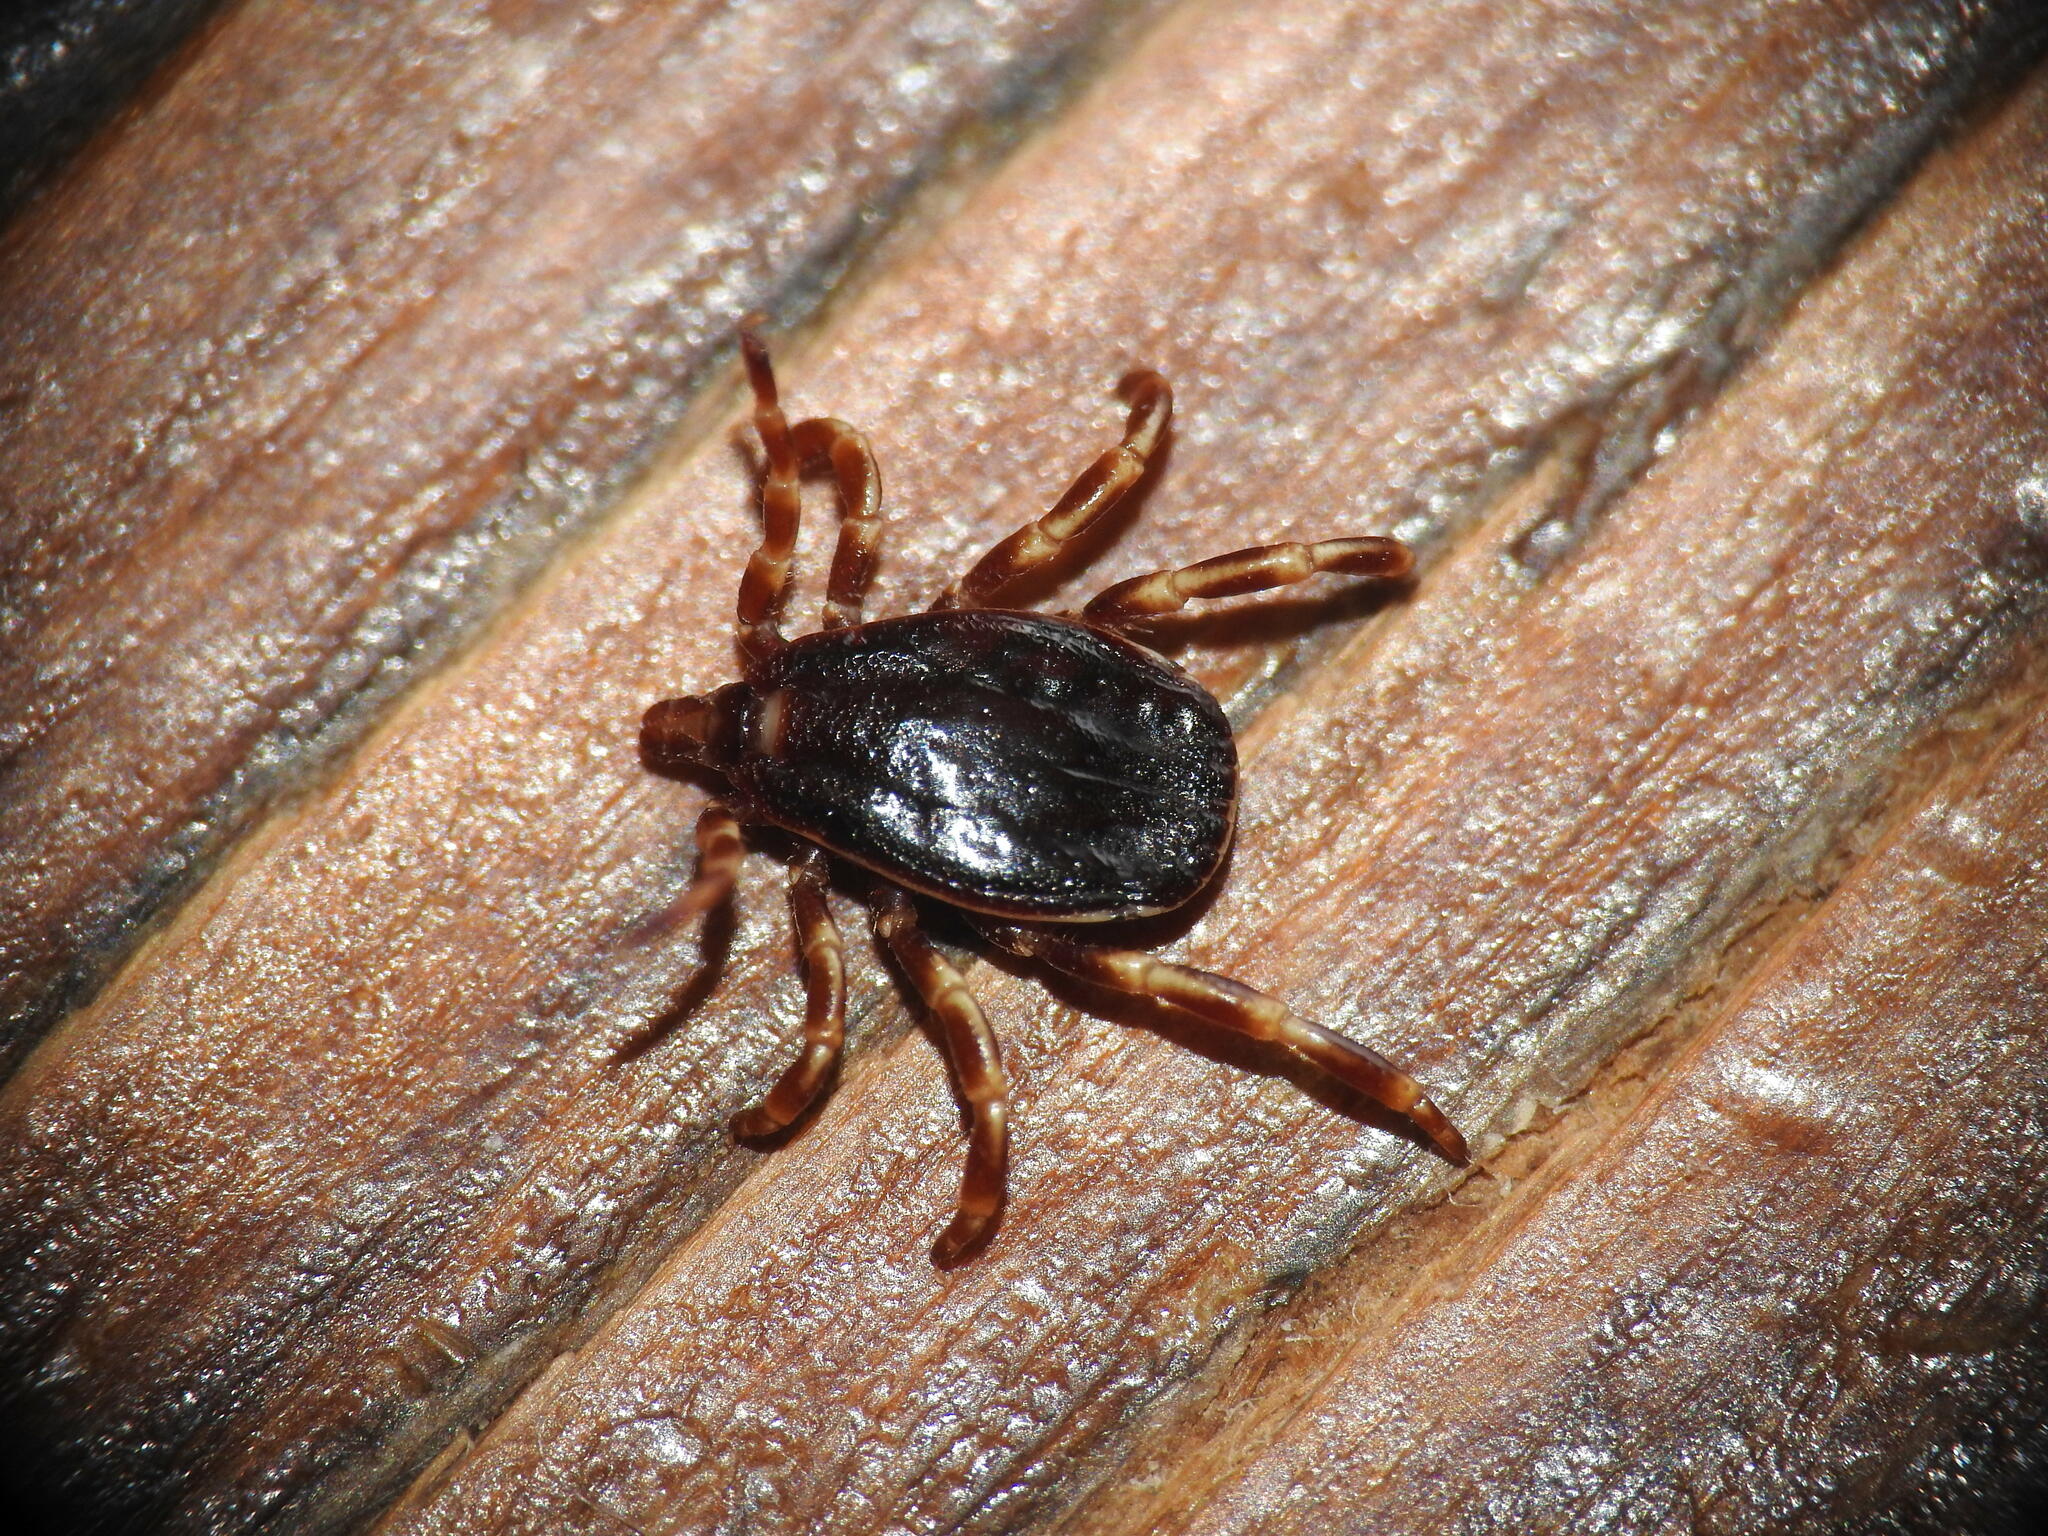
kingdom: Animalia
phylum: Arthropoda
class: Arachnida
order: Ixodida
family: Ixodidae
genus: Hyalomma
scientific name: Hyalomma marginatum
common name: Mediterranean hyalomma
